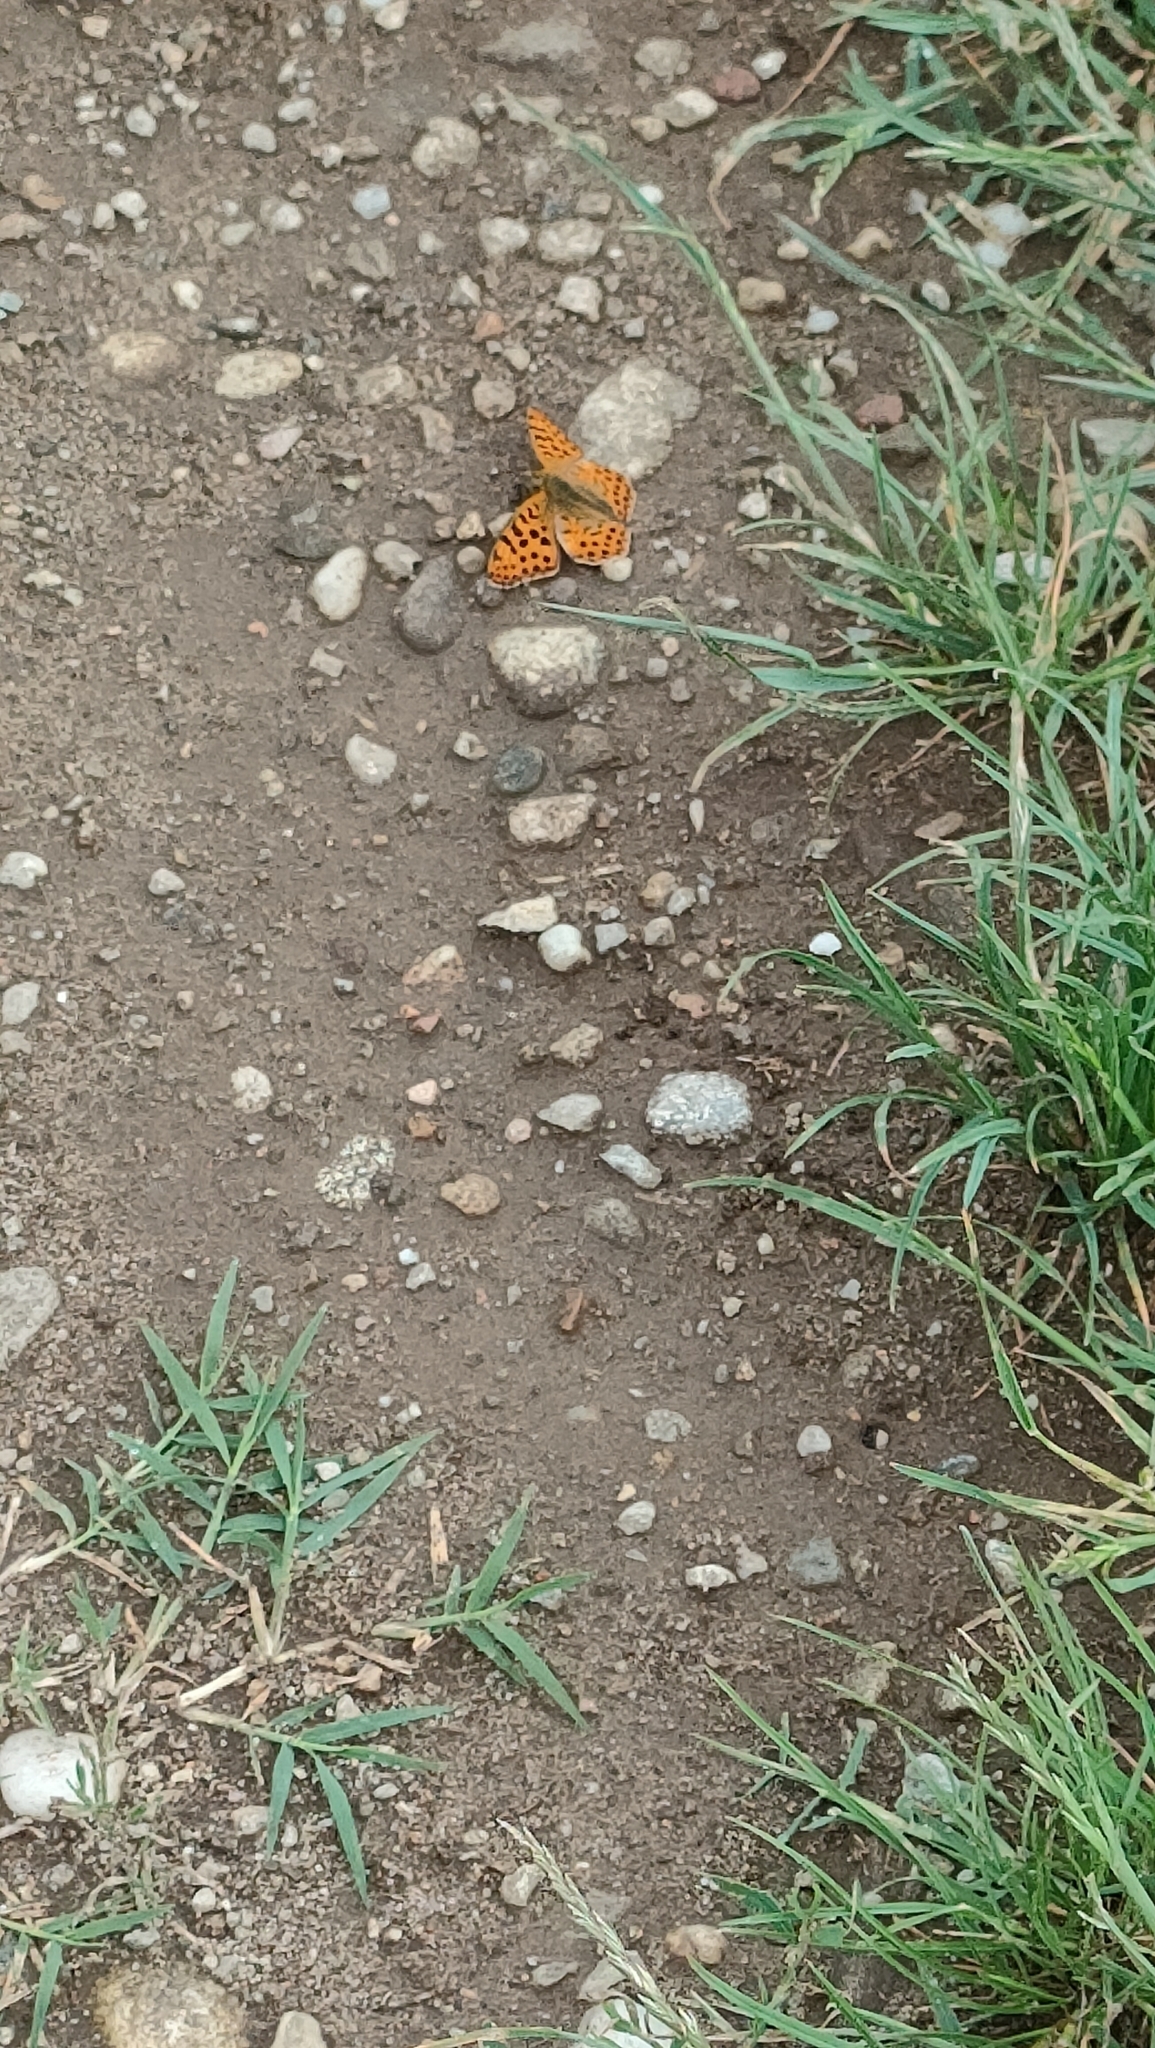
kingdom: Animalia
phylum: Arthropoda
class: Insecta
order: Lepidoptera
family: Nymphalidae
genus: Issoria
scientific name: Issoria lathonia
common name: Queen of spain fritillary
